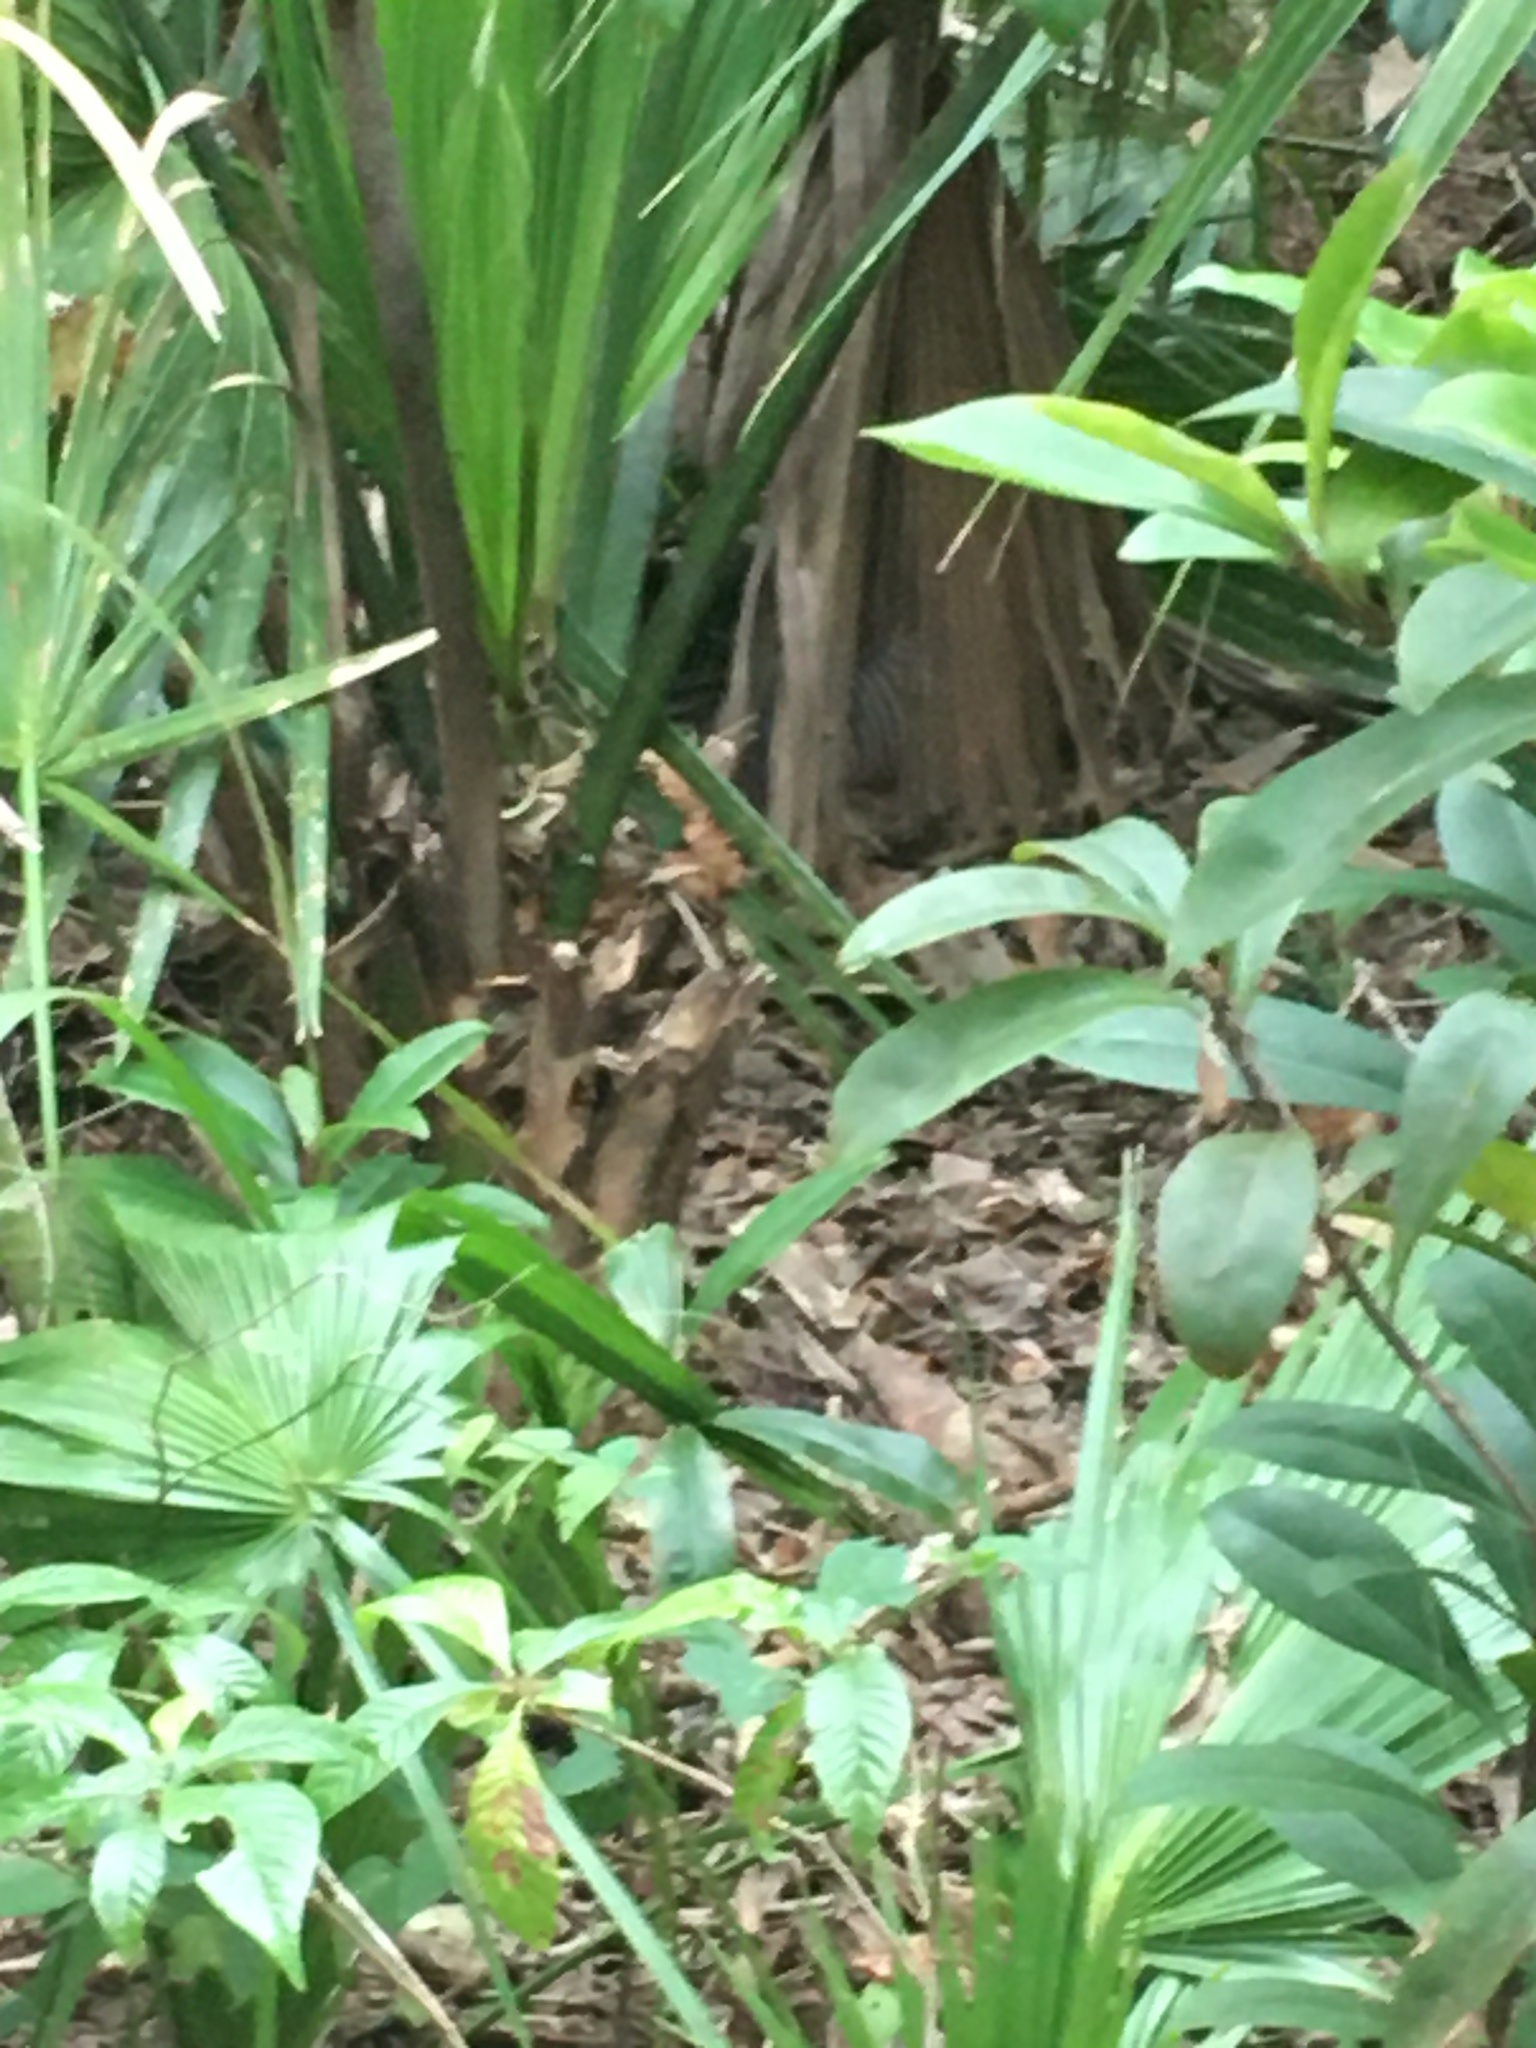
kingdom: Animalia
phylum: Chordata
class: Mammalia
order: Cingulata
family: Dasypodidae
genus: Dasypus
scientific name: Dasypus novemcinctus
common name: Nine-banded armadillo
